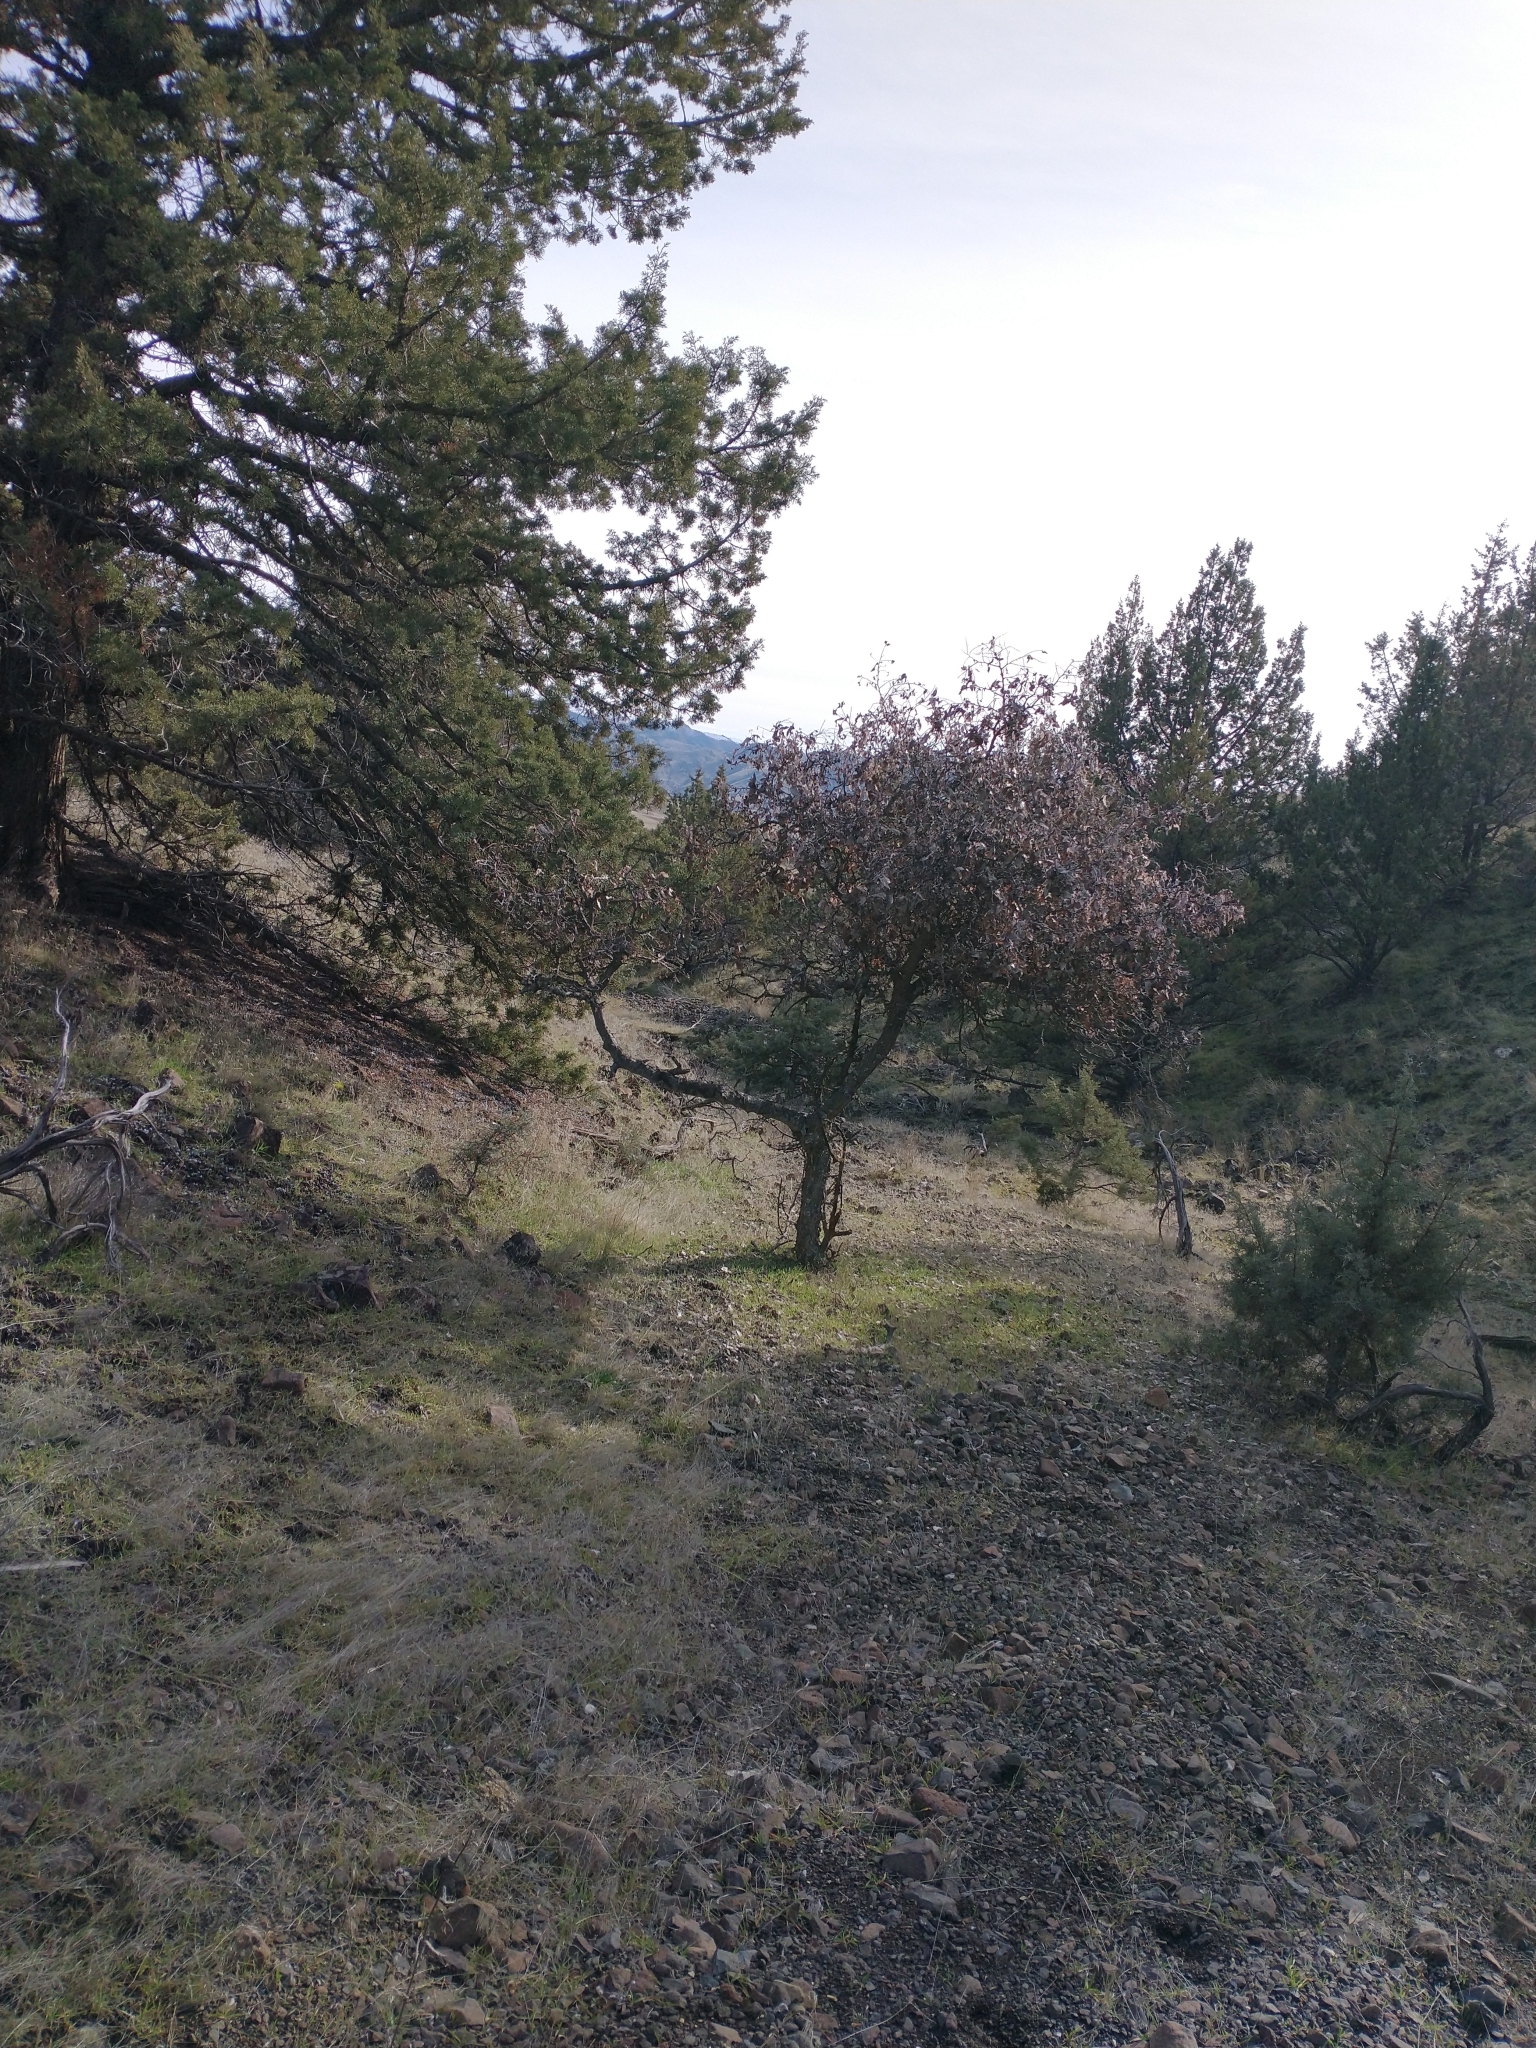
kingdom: Plantae
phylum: Tracheophyta
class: Magnoliopsida
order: Rosales
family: Cannabaceae
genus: Celtis
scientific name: Celtis reticulata
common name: Netleaf hackberry
